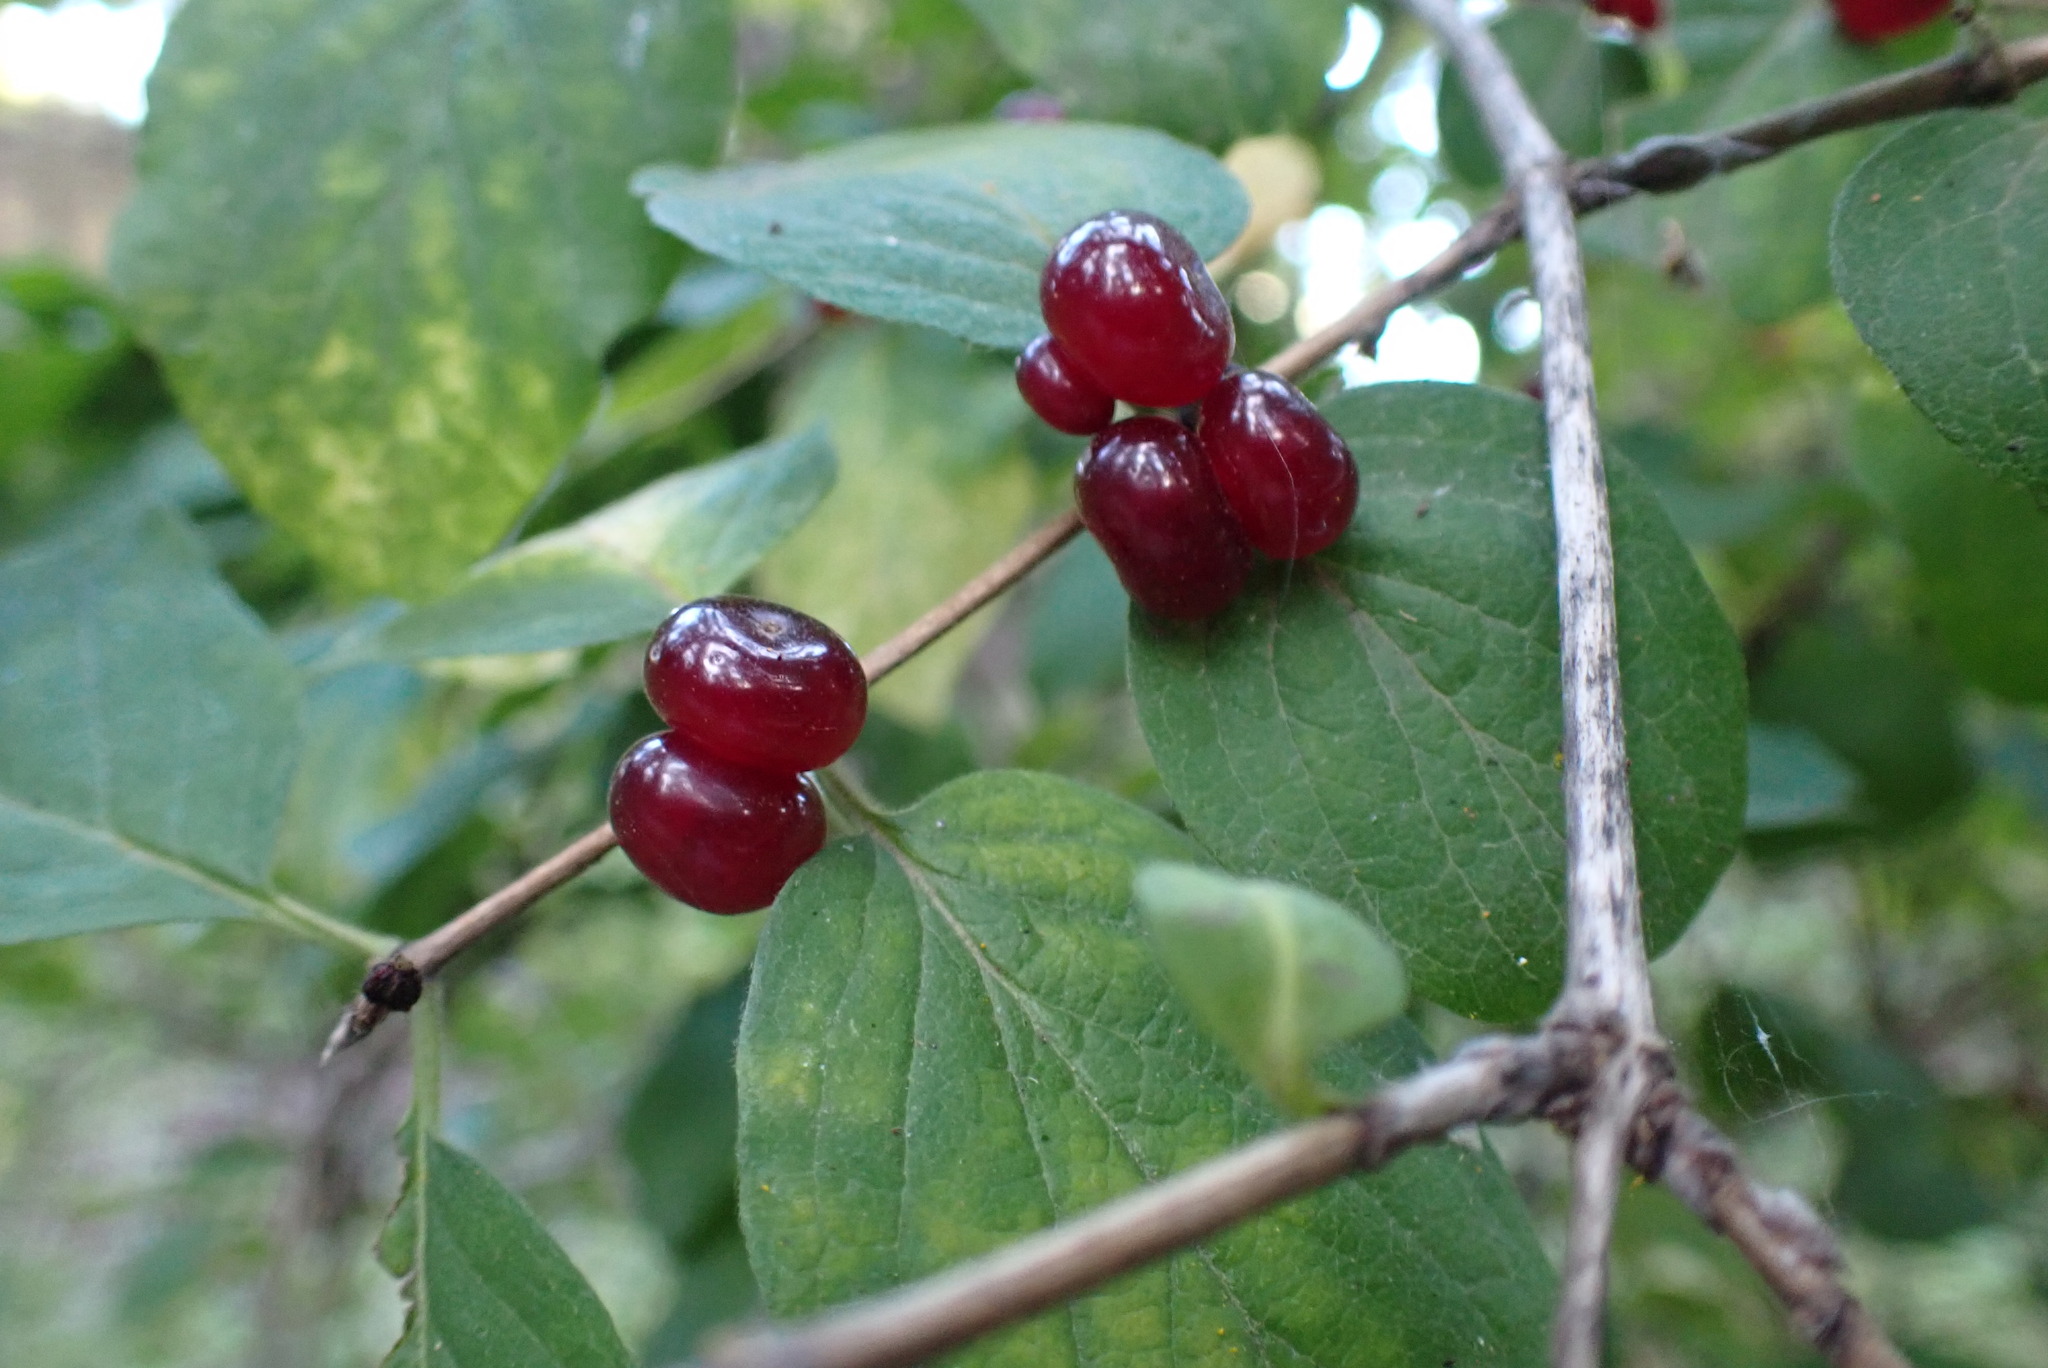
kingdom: Plantae
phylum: Tracheophyta
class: Magnoliopsida
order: Dipsacales
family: Caprifoliaceae
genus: Lonicera
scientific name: Lonicera xylosteum
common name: Fly honeysuckle
